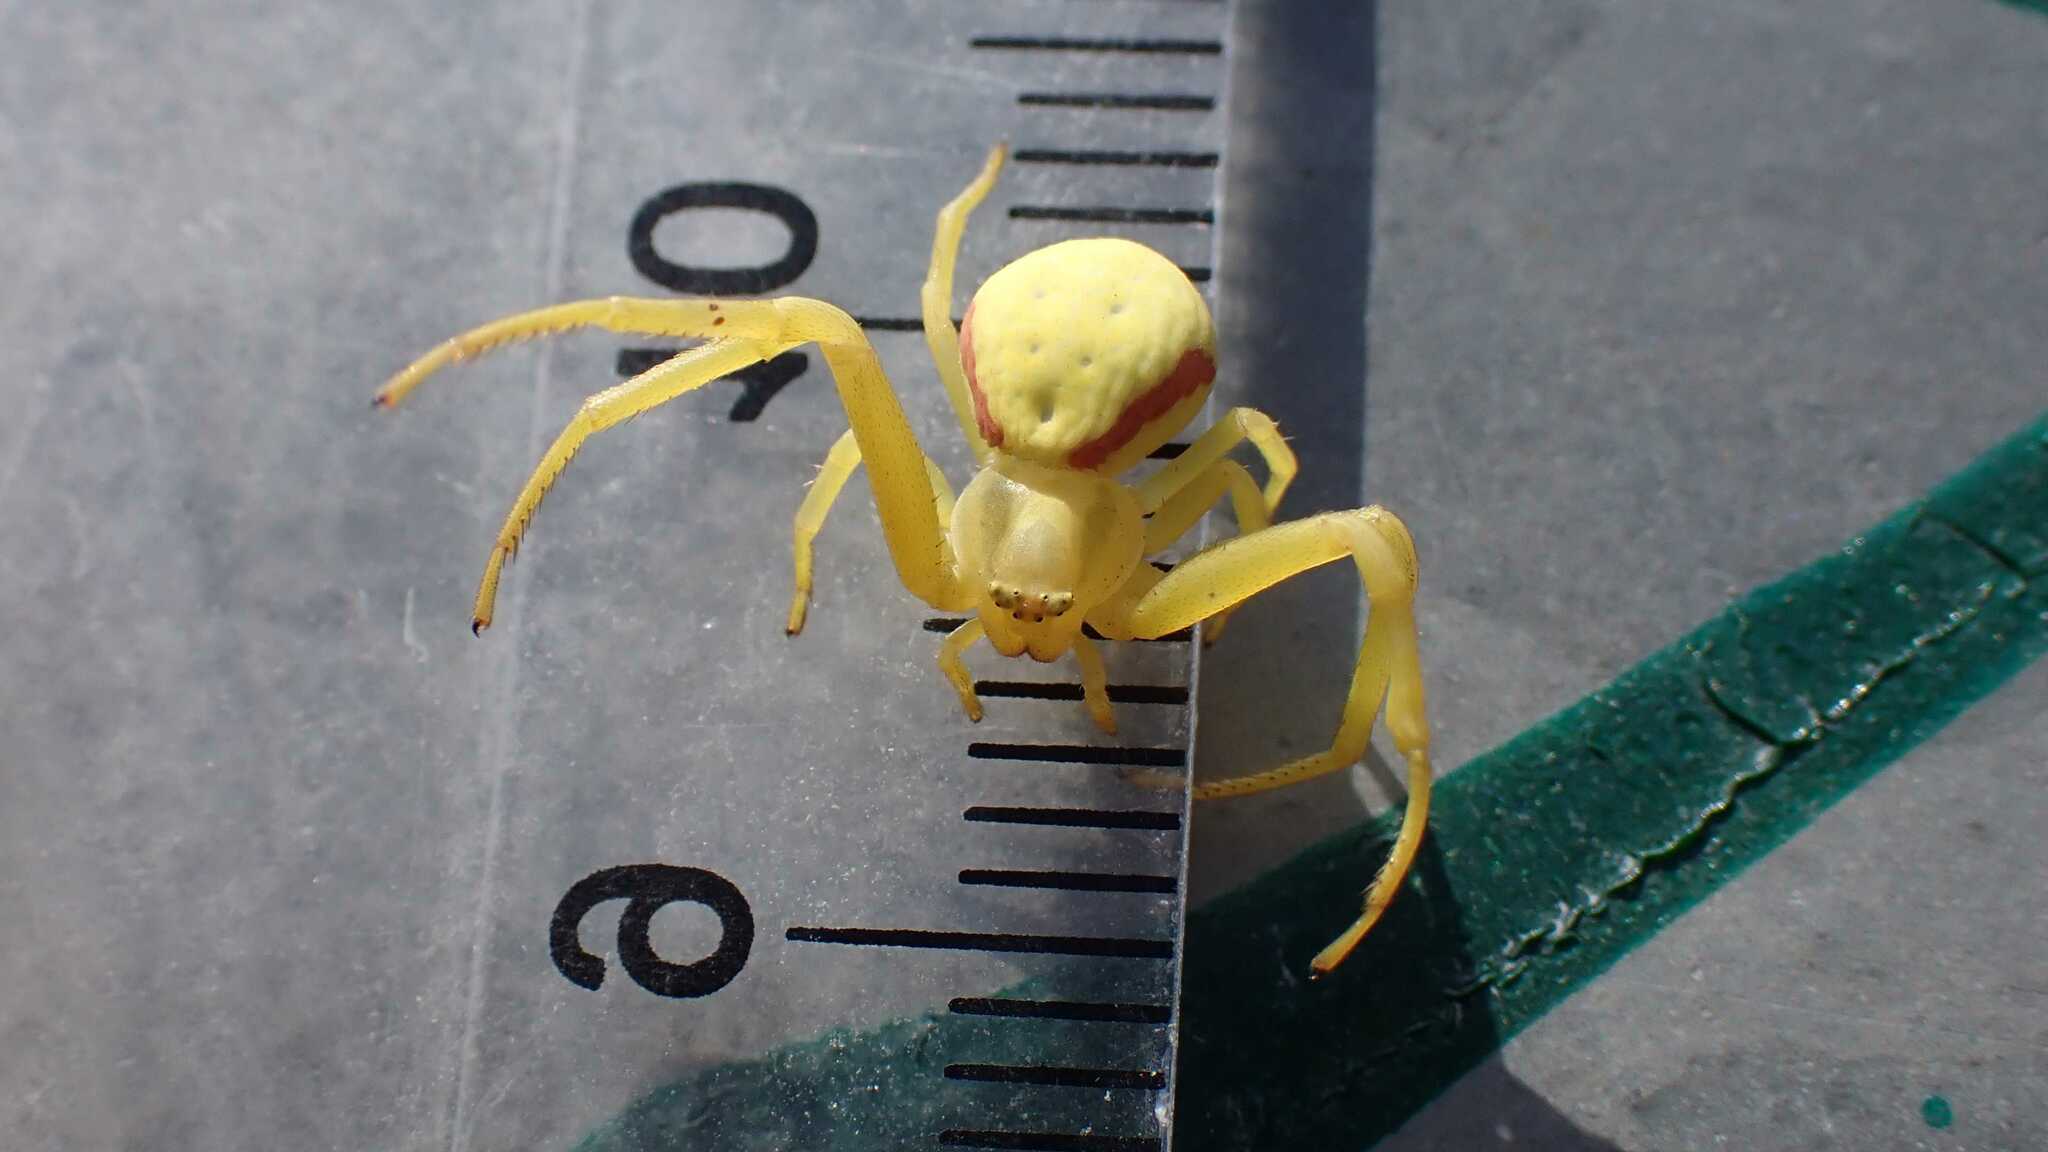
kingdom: Animalia
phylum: Arthropoda
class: Arachnida
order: Araneae
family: Thomisidae
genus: Misumena
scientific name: Misumena vatia
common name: Goldenrod crab spider
